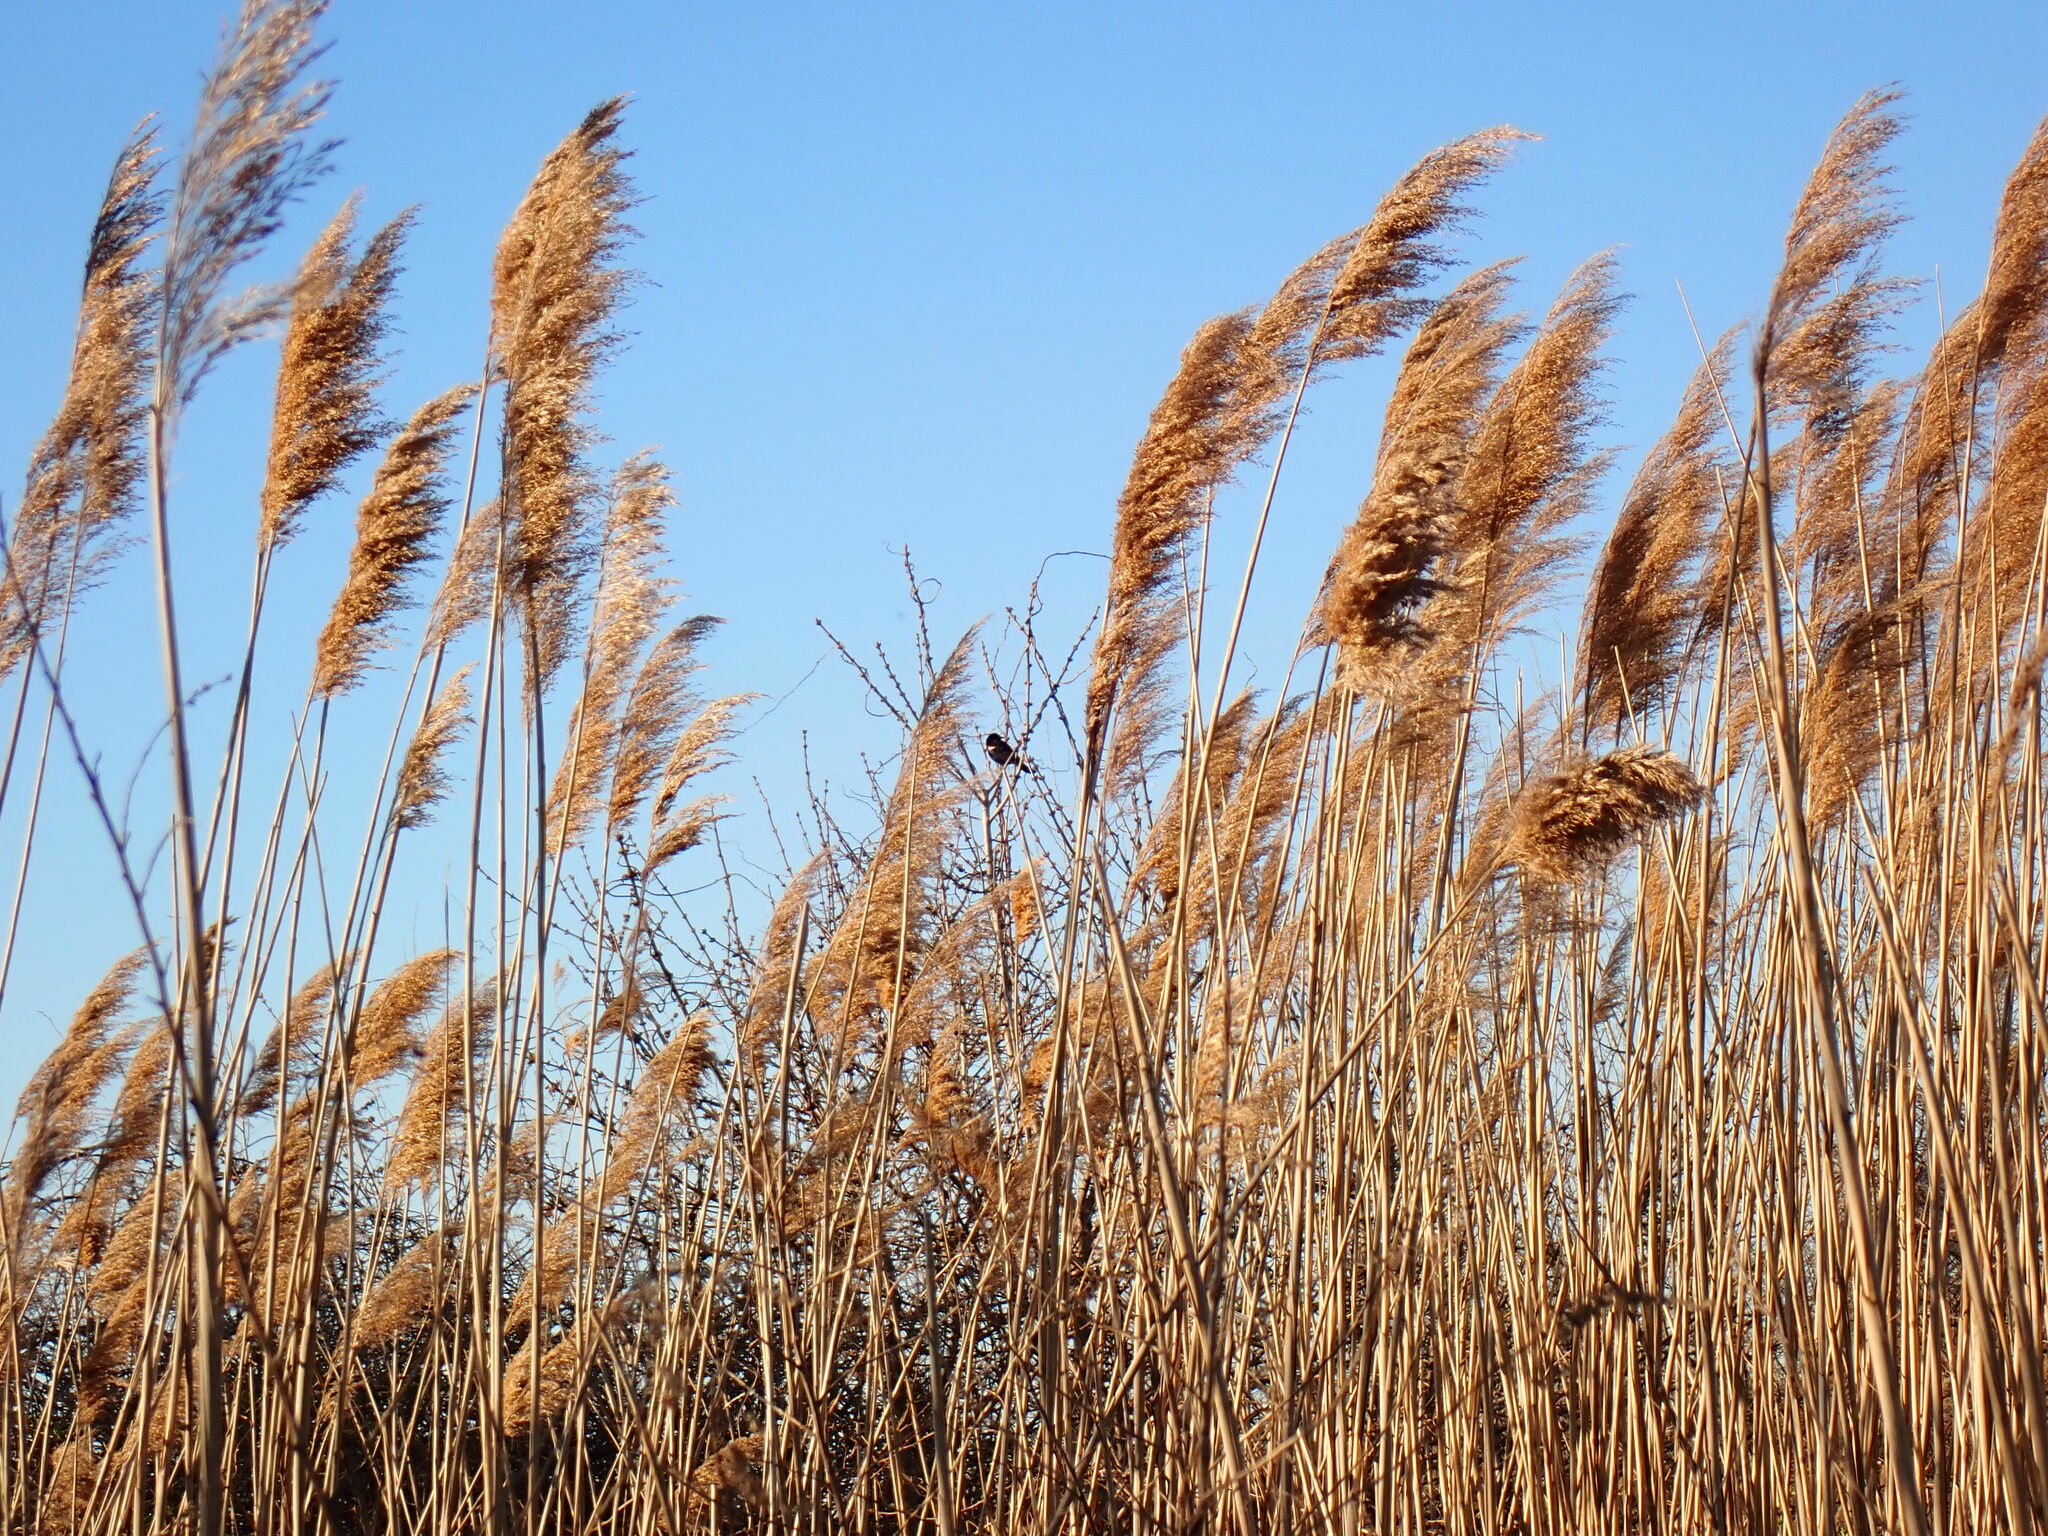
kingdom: Animalia
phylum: Chordata
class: Aves
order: Passeriformes
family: Icteridae
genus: Agelaius
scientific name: Agelaius phoeniceus
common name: Red-winged blackbird
